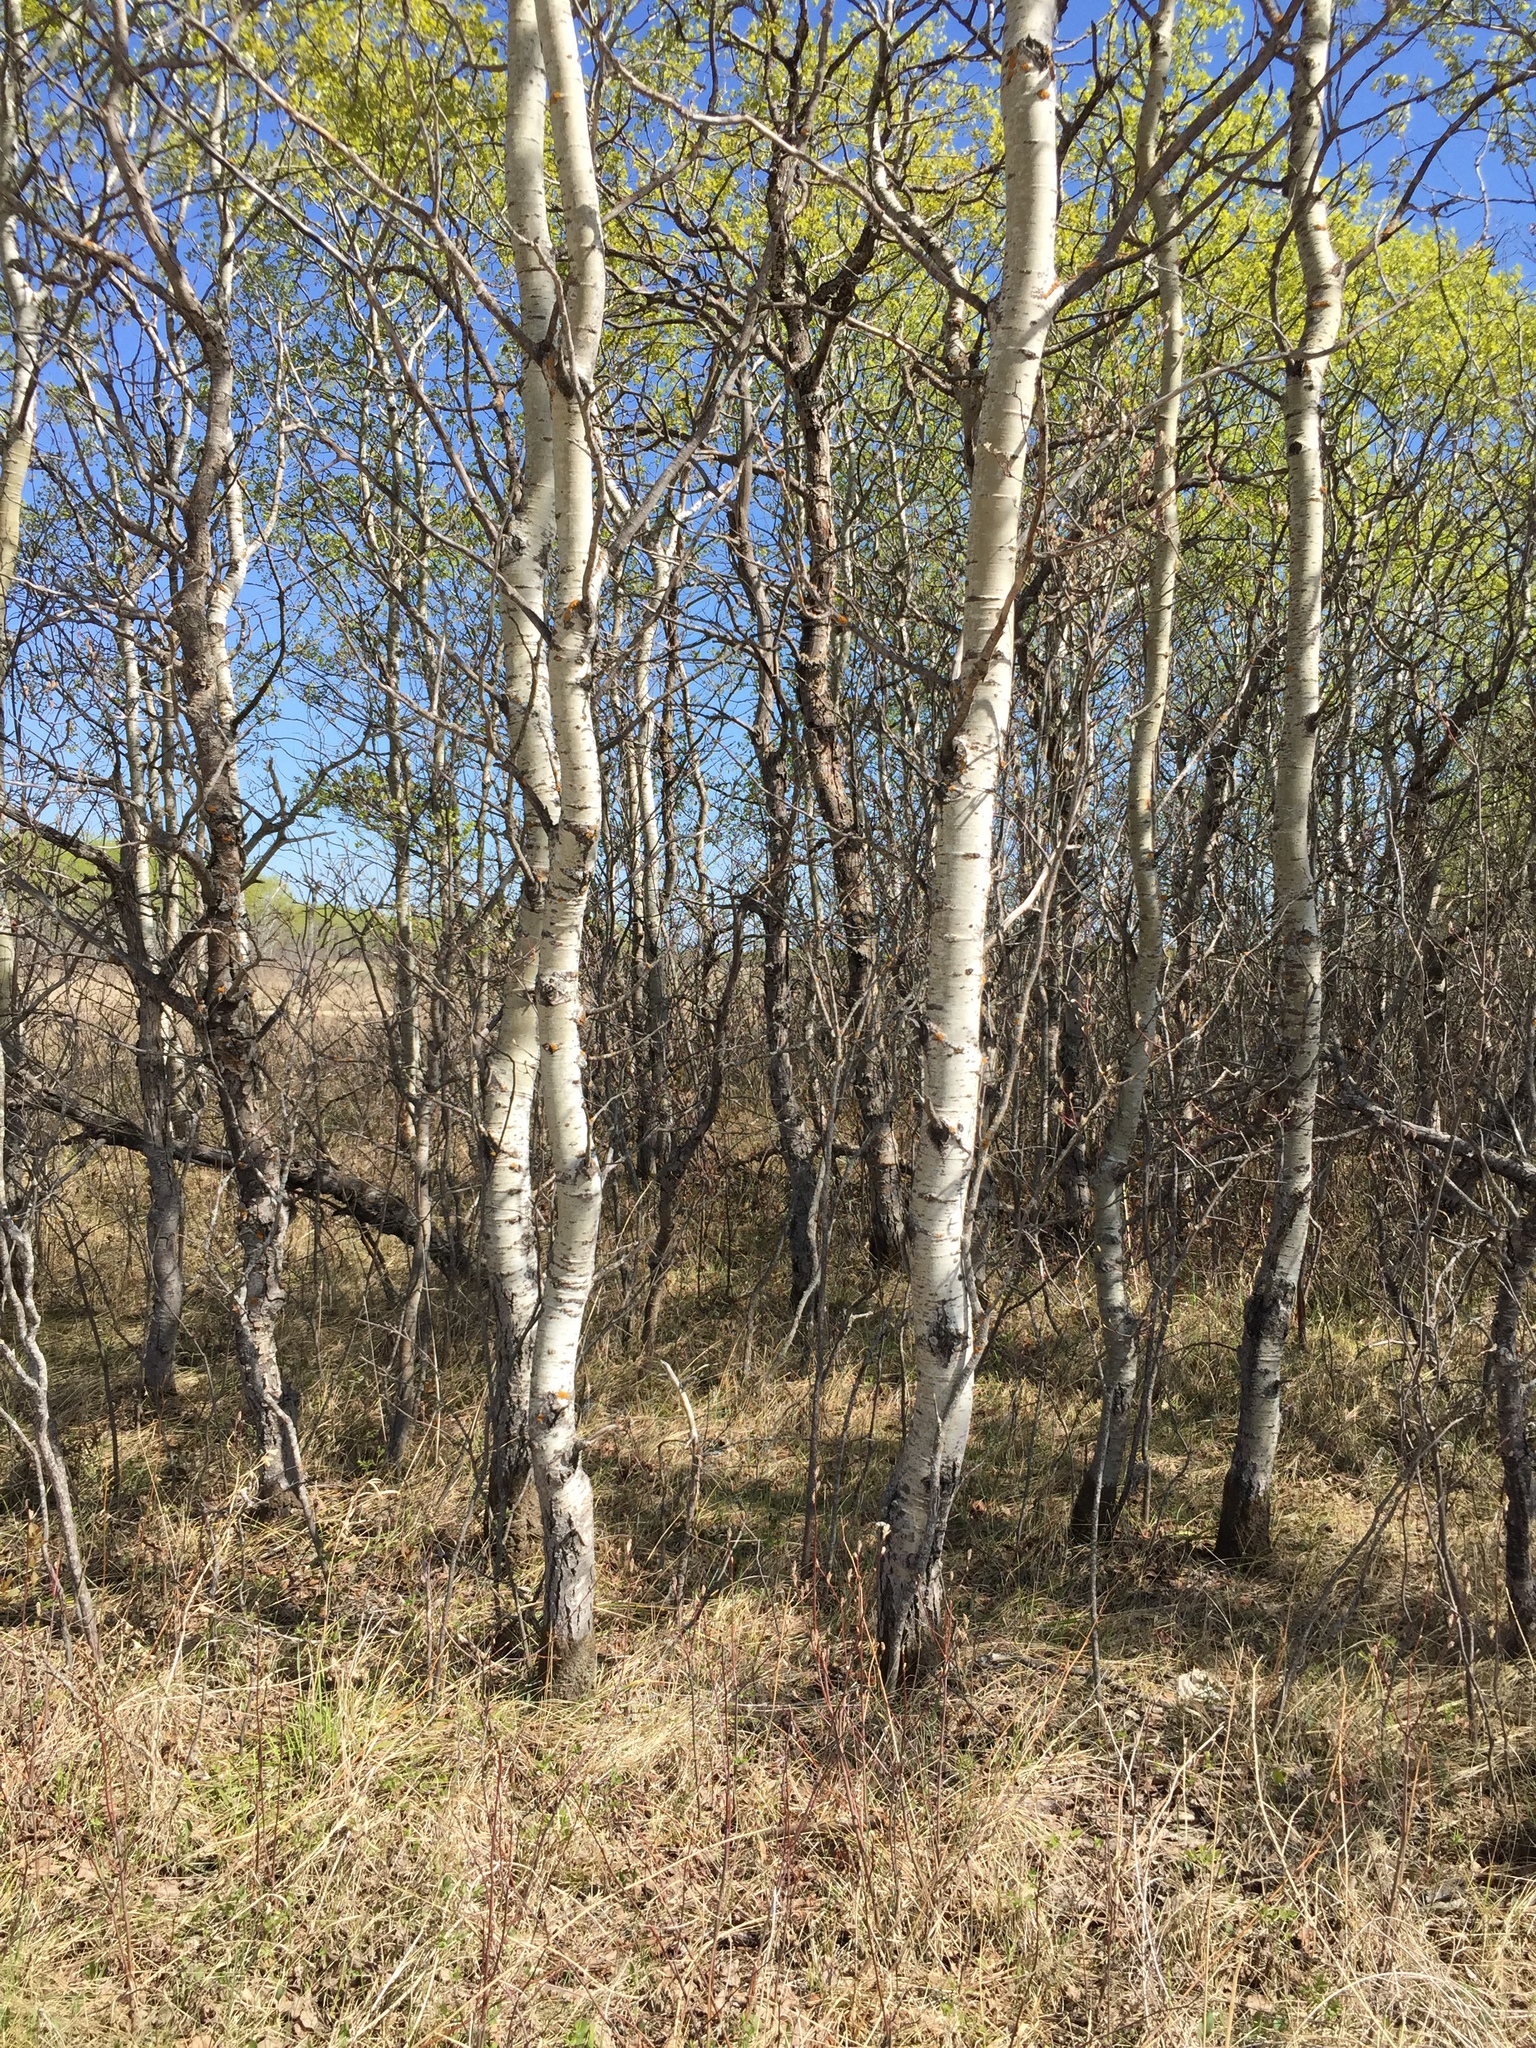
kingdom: Plantae
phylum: Tracheophyta
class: Magnoliopsida
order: Malpighiales
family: Salicaceae
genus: Populus
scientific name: Populus tremuloides
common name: Quaking aspen
